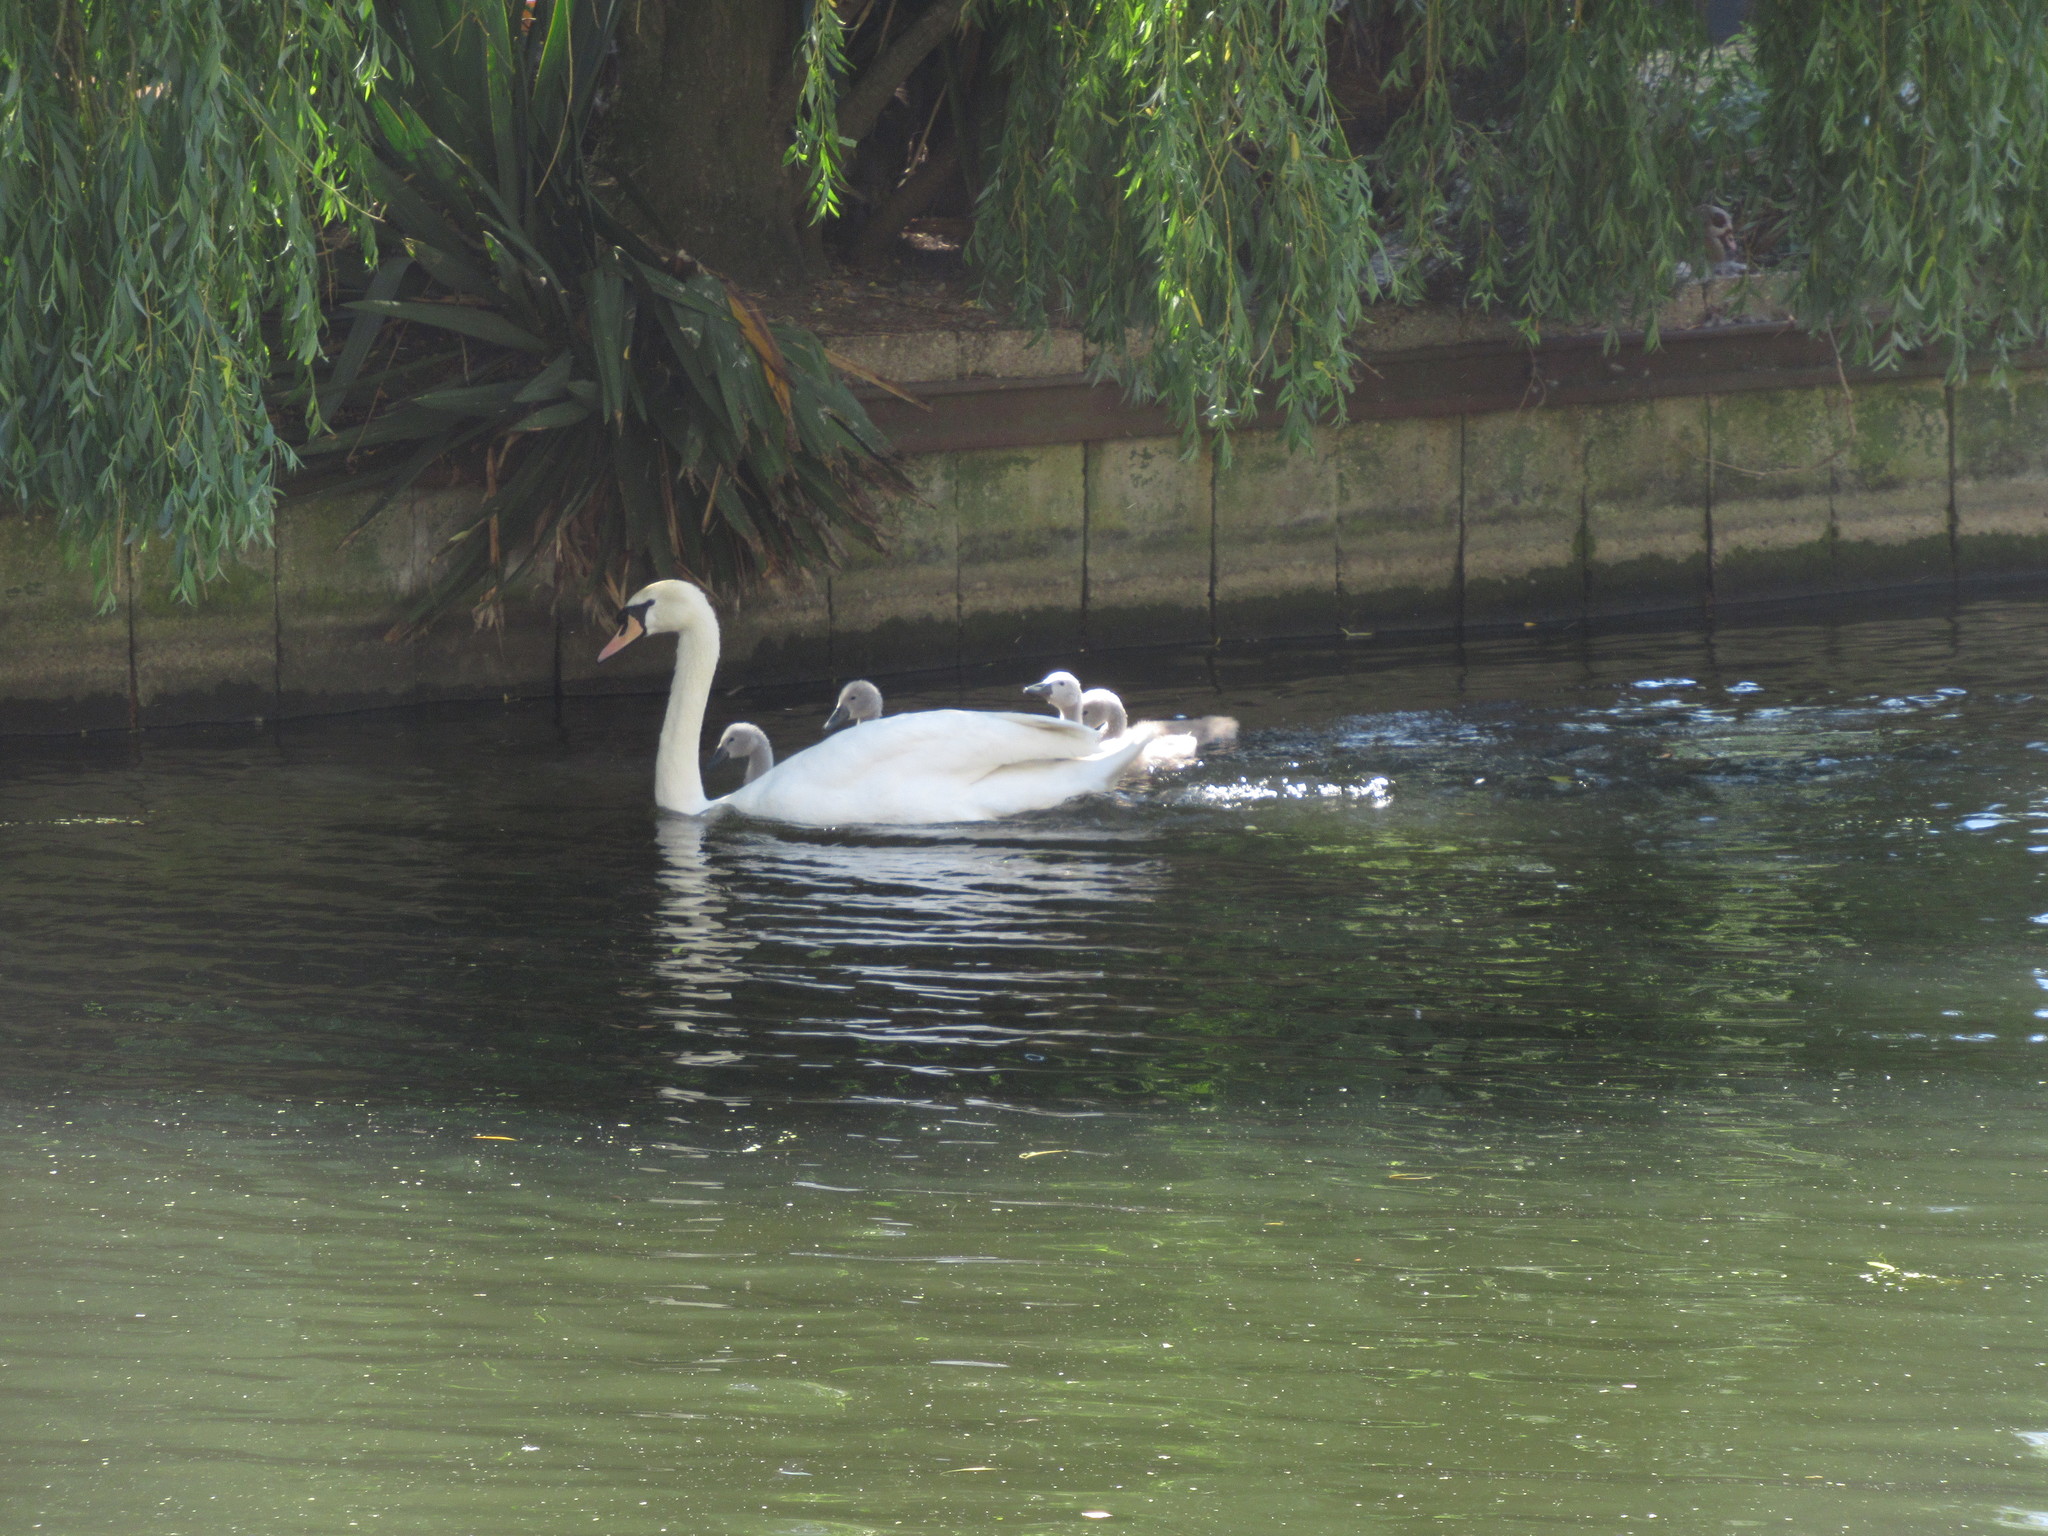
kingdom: Animalia
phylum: Chordata
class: Aves
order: Anseriformes
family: Anatidae
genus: Cygnus
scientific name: Cygnus olor
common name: Mute swan
